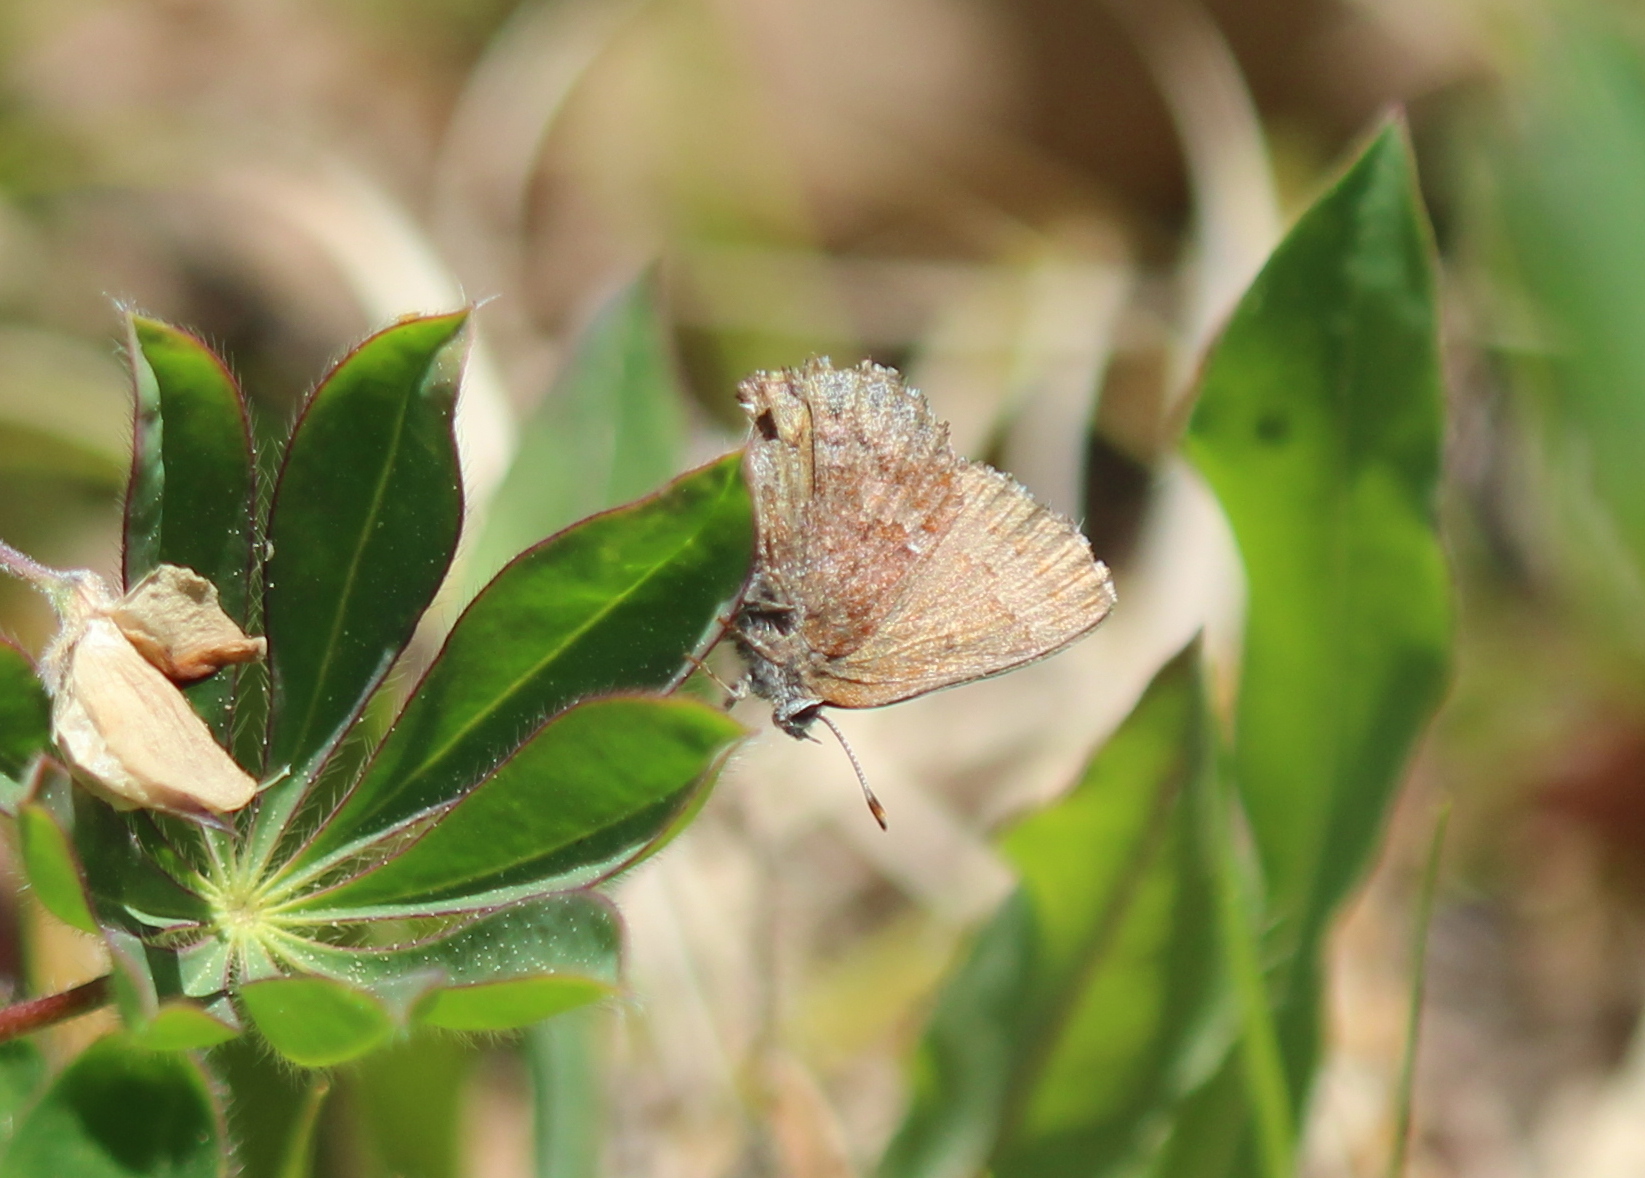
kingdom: Animalia
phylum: Arthropoda
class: Insecta
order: Lepidoptera
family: Lycaenidae
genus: Thecla
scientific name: Thecla irus
